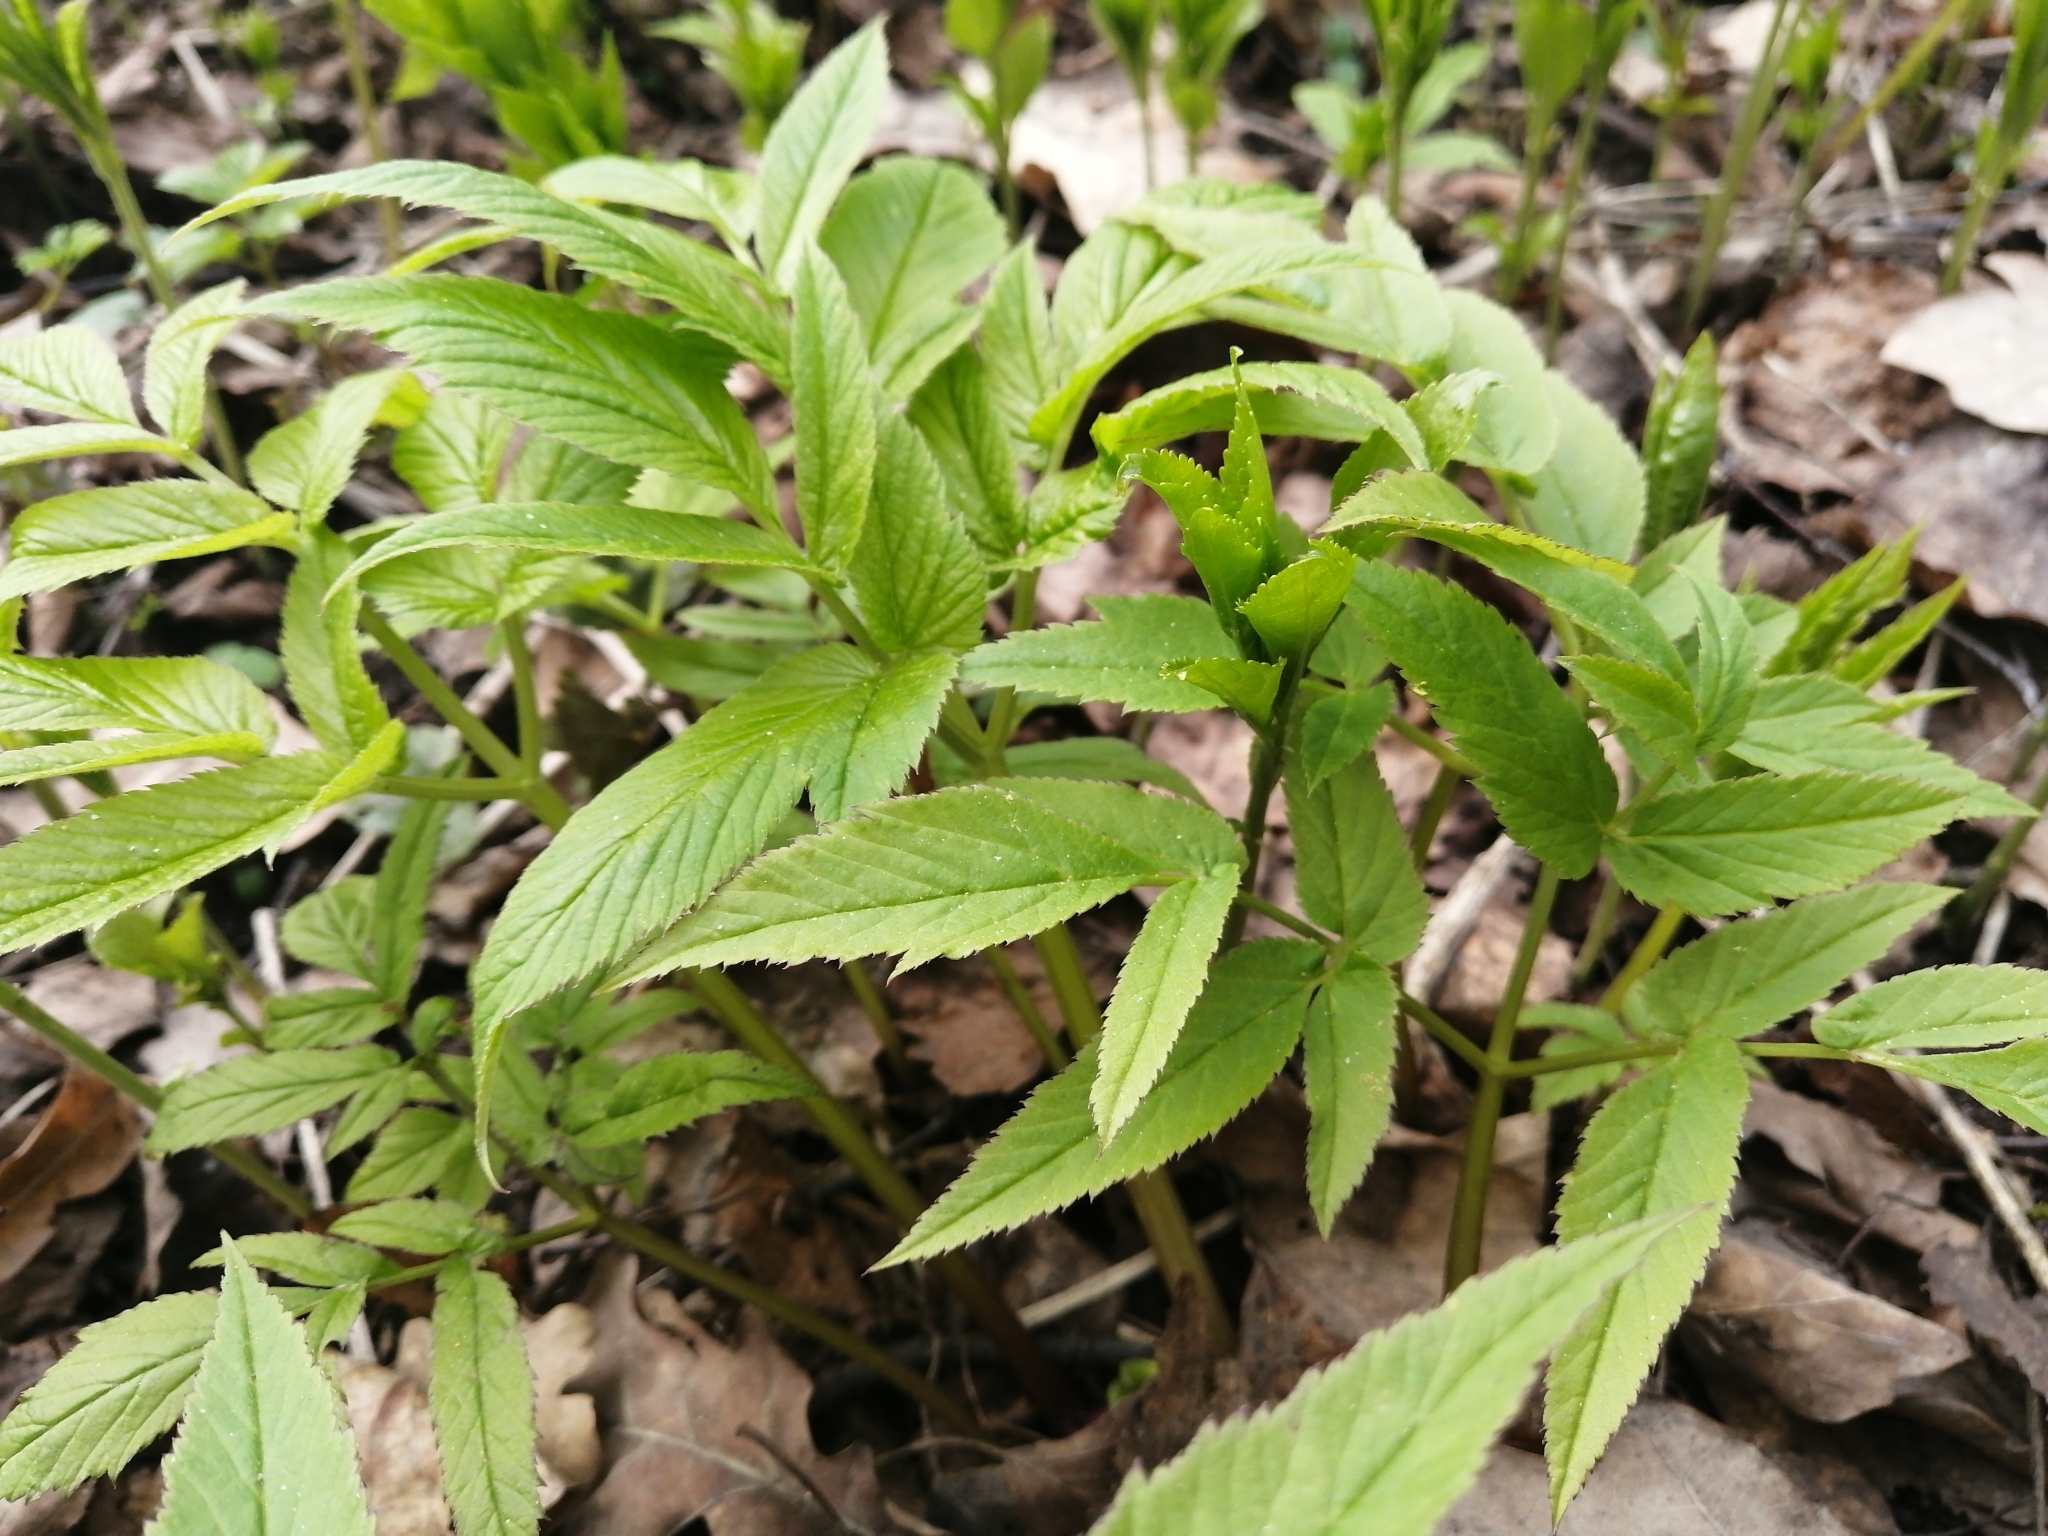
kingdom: Plantae
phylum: Tracheophyta
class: Magnoliopsida
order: Apiales
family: Apiaceae
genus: Angelica
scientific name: Angelica sylvestris
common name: Wild angelica
